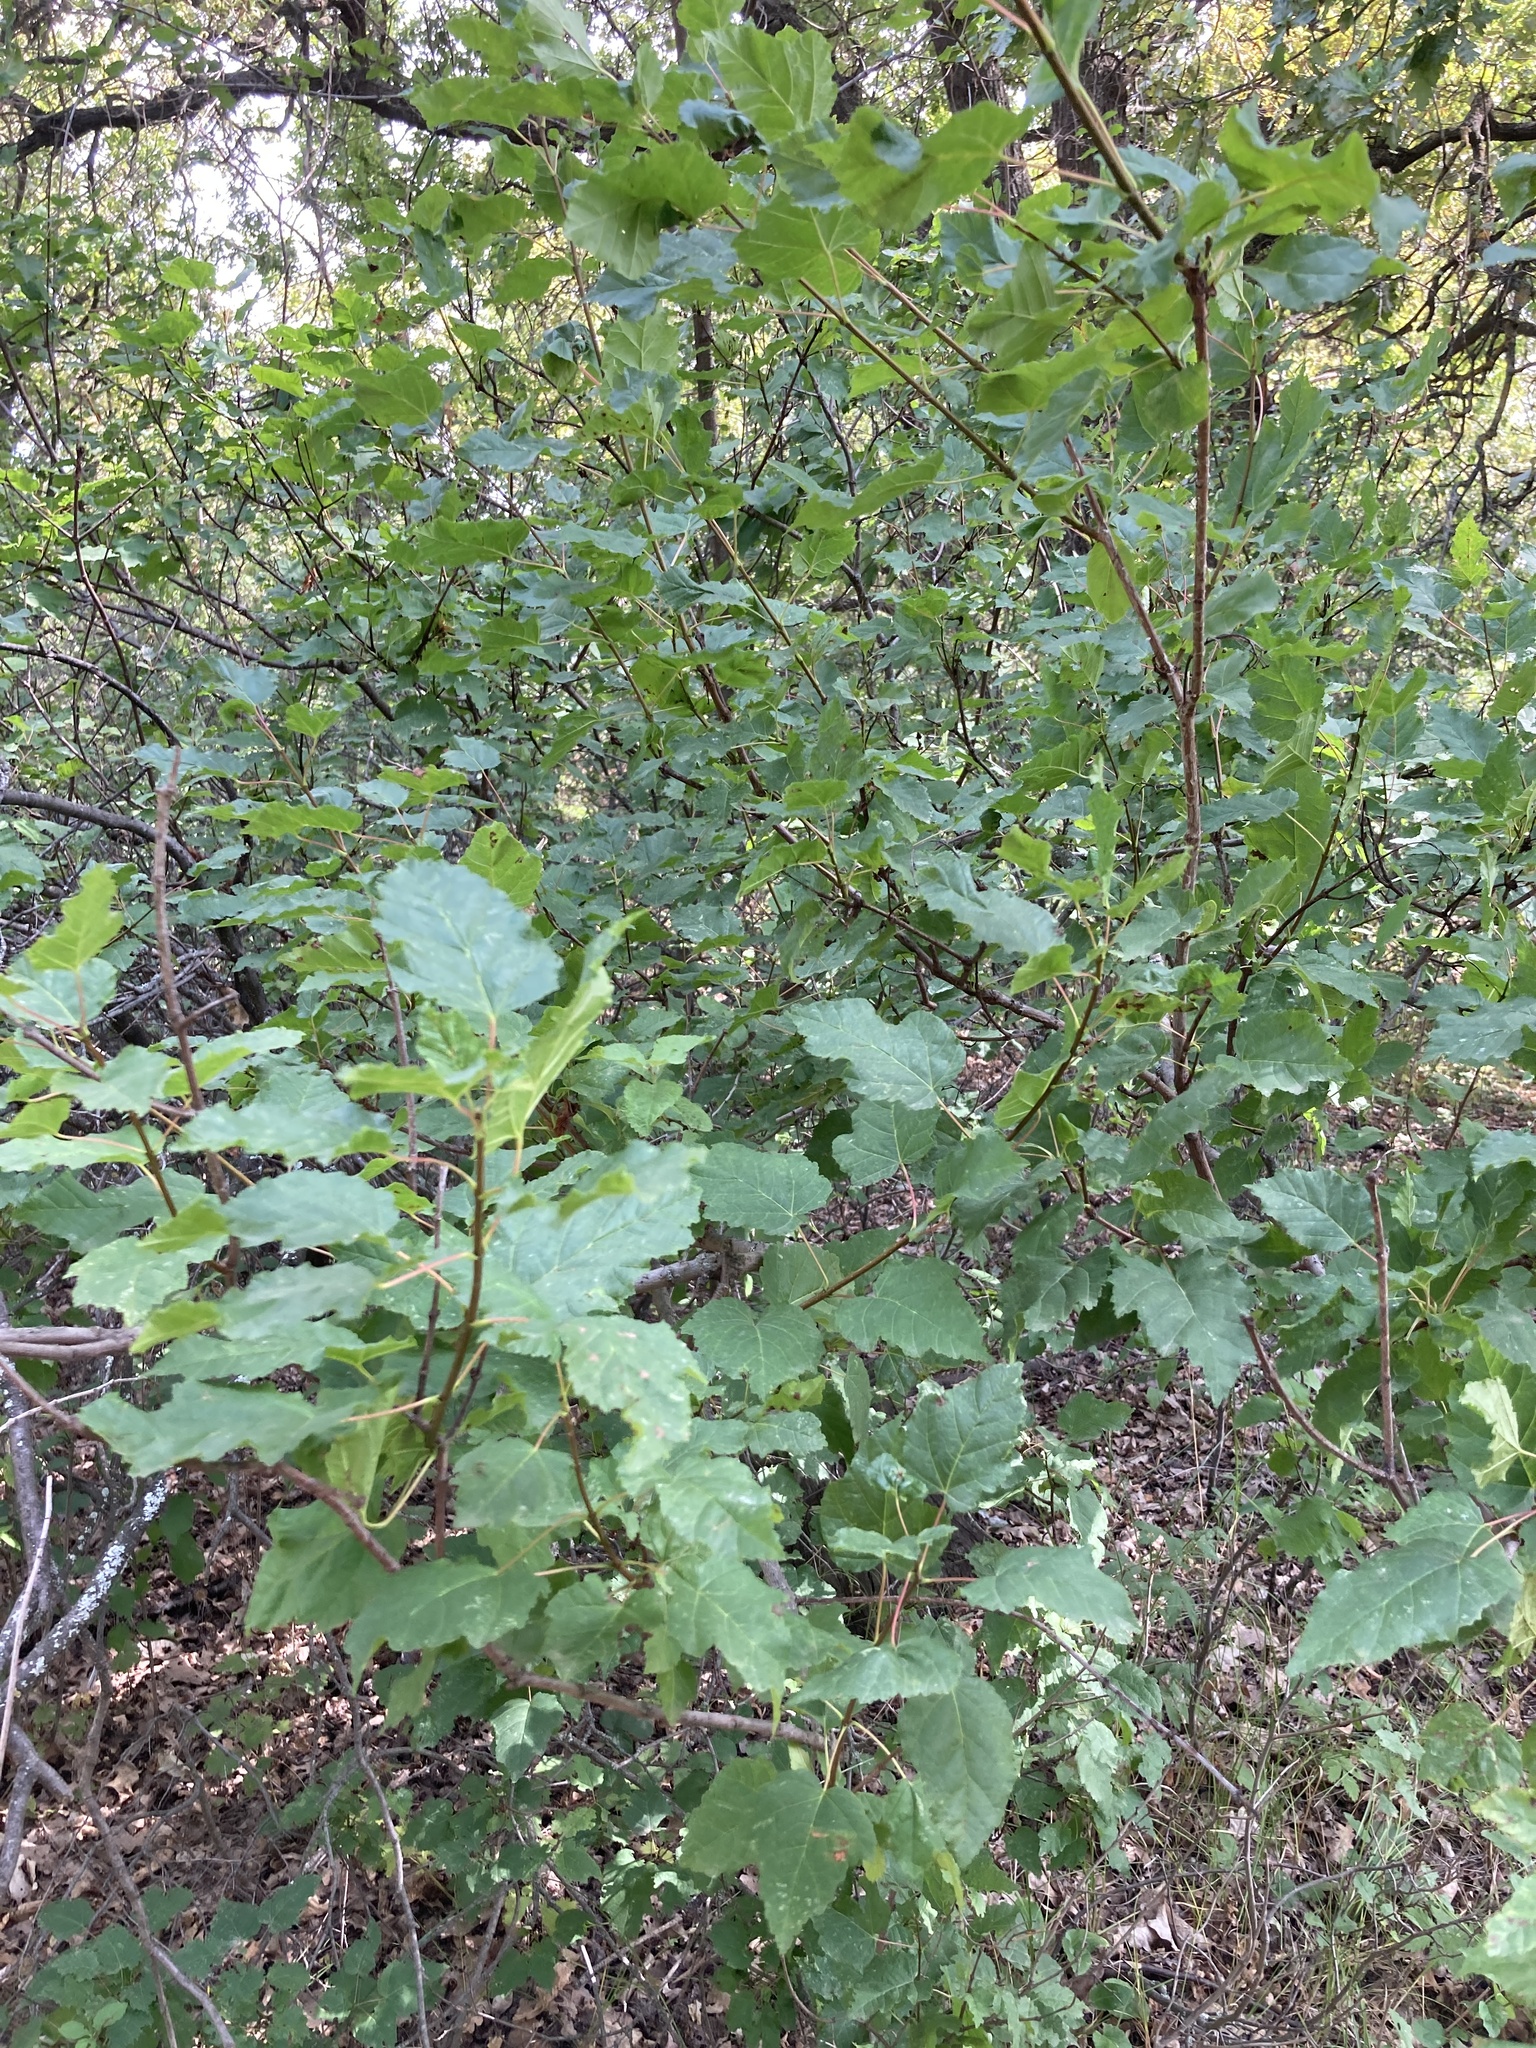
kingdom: Plantae
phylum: Tracheophyta
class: Magnoliopsida
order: Sapindales
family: Sapindaceae
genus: Acer
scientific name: Acer tataricum
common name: Tartar maple
